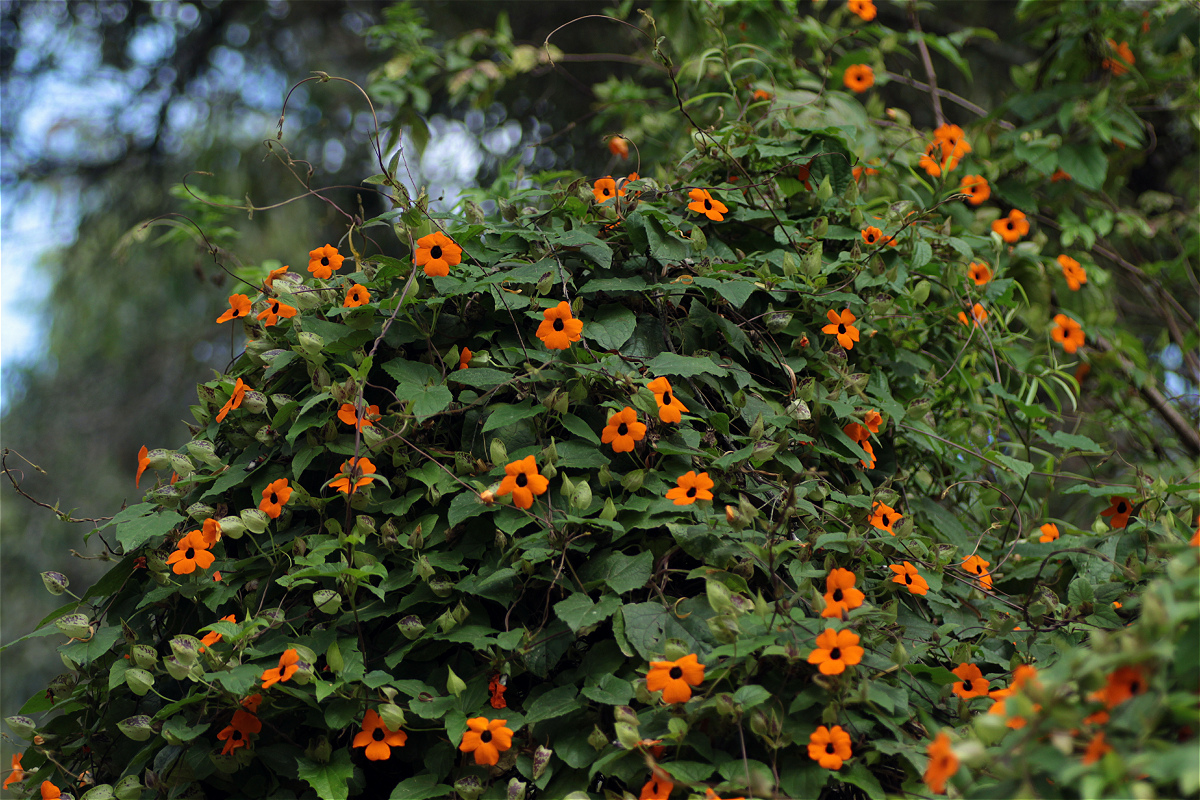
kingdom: Plantae
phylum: Tracheophyta
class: Magnoliopsida
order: Lamiales
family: Acanthaceae
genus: Thunbergia
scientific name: Thunbergia alata
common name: Blackeyed susan vine
